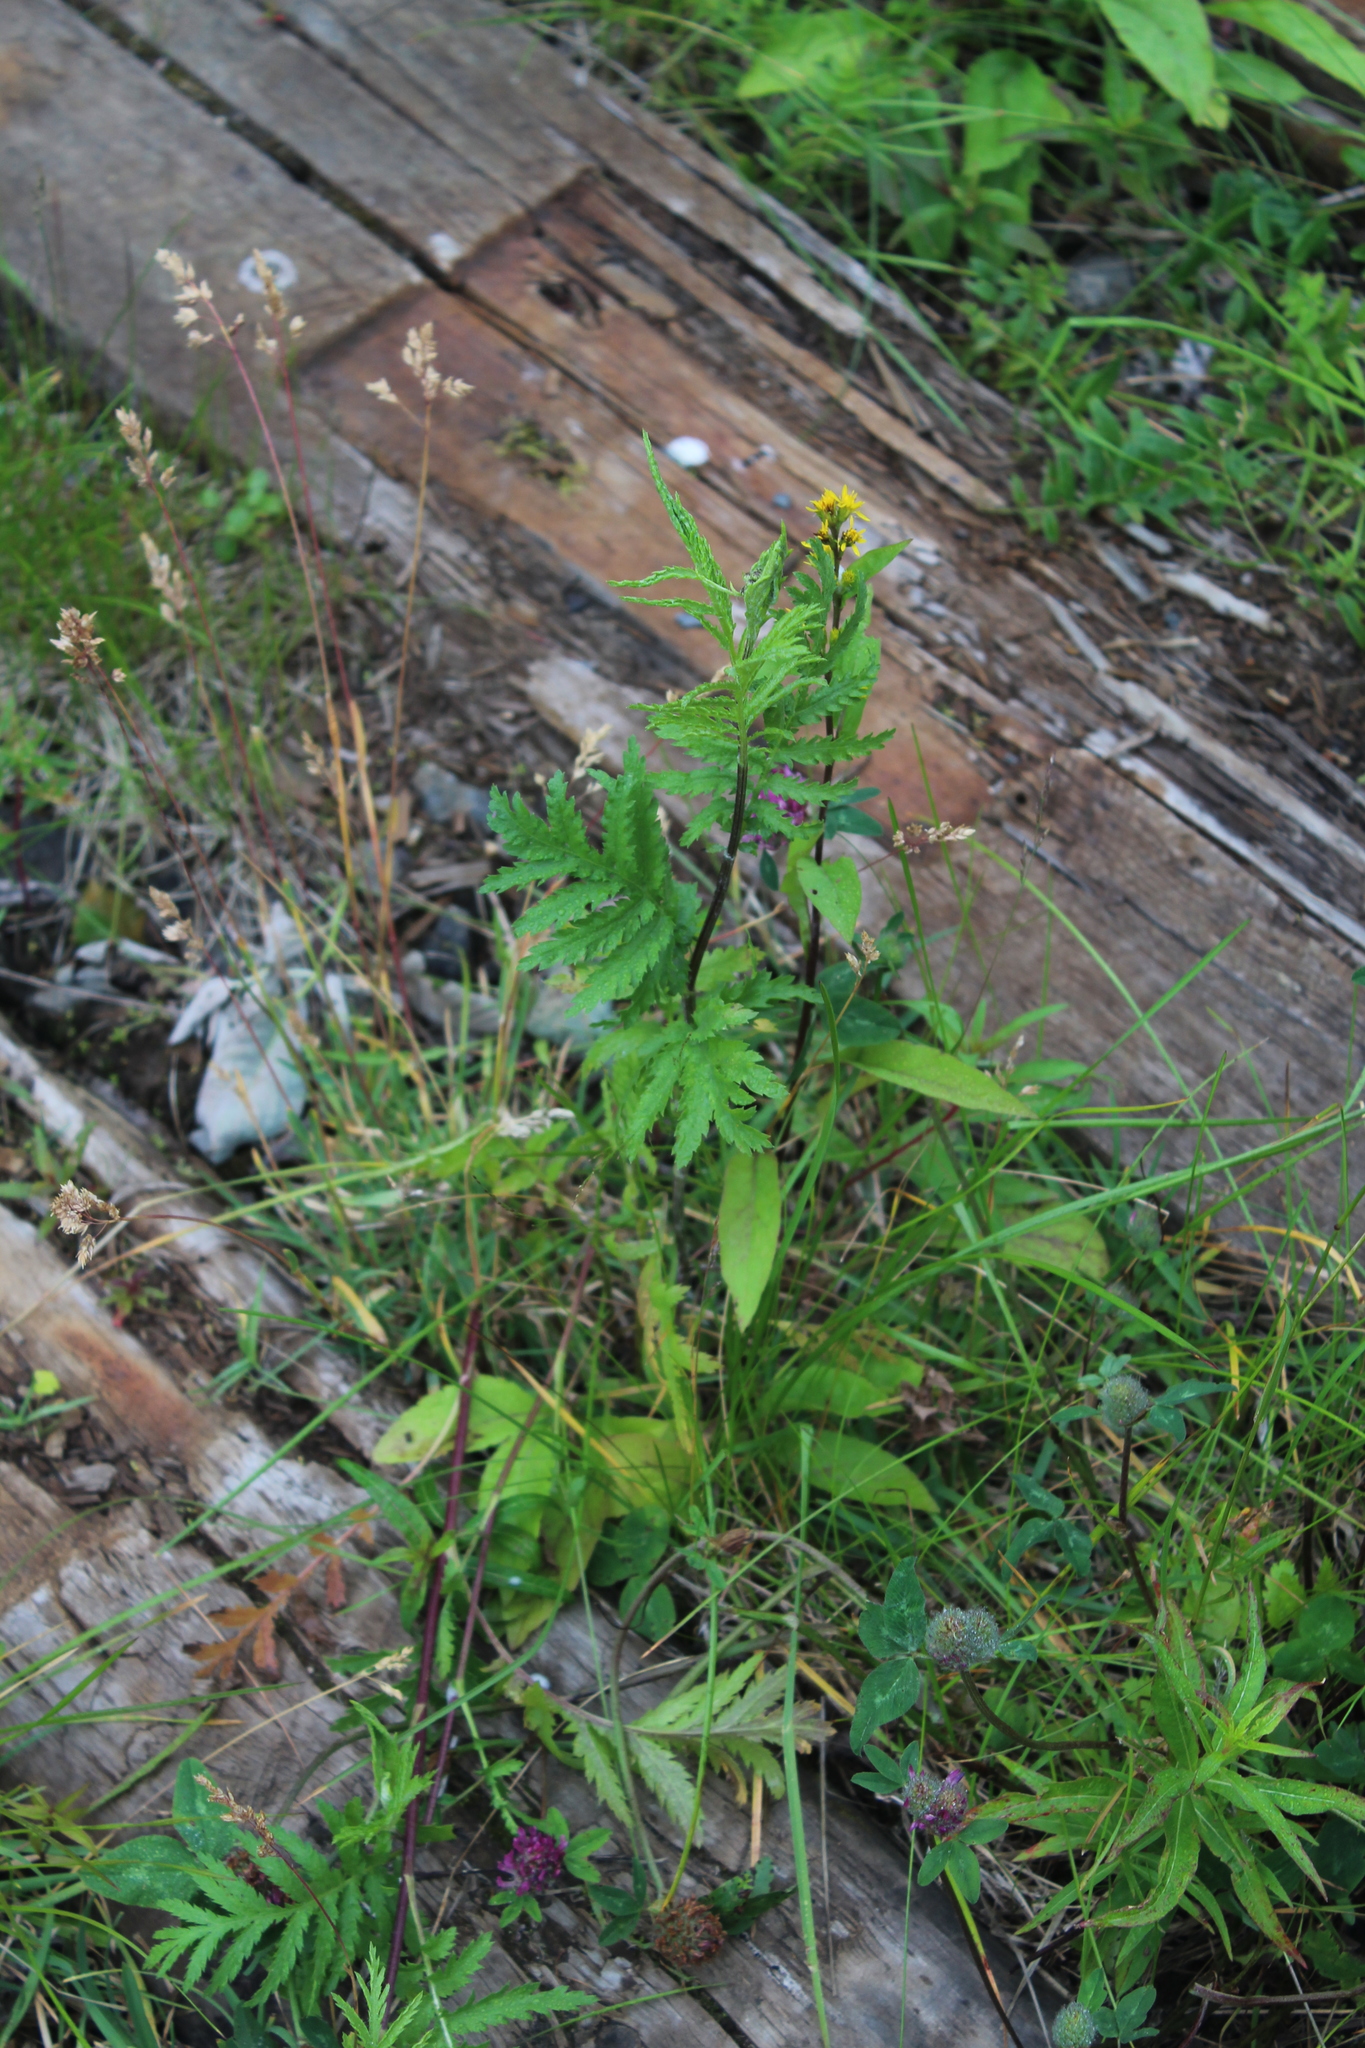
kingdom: Plantae
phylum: Tracheophyta
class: Magnoliopsida
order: Asterales
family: Asteraceae
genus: Tanacetum
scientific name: Tanacetum vulgare
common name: Common tansy
